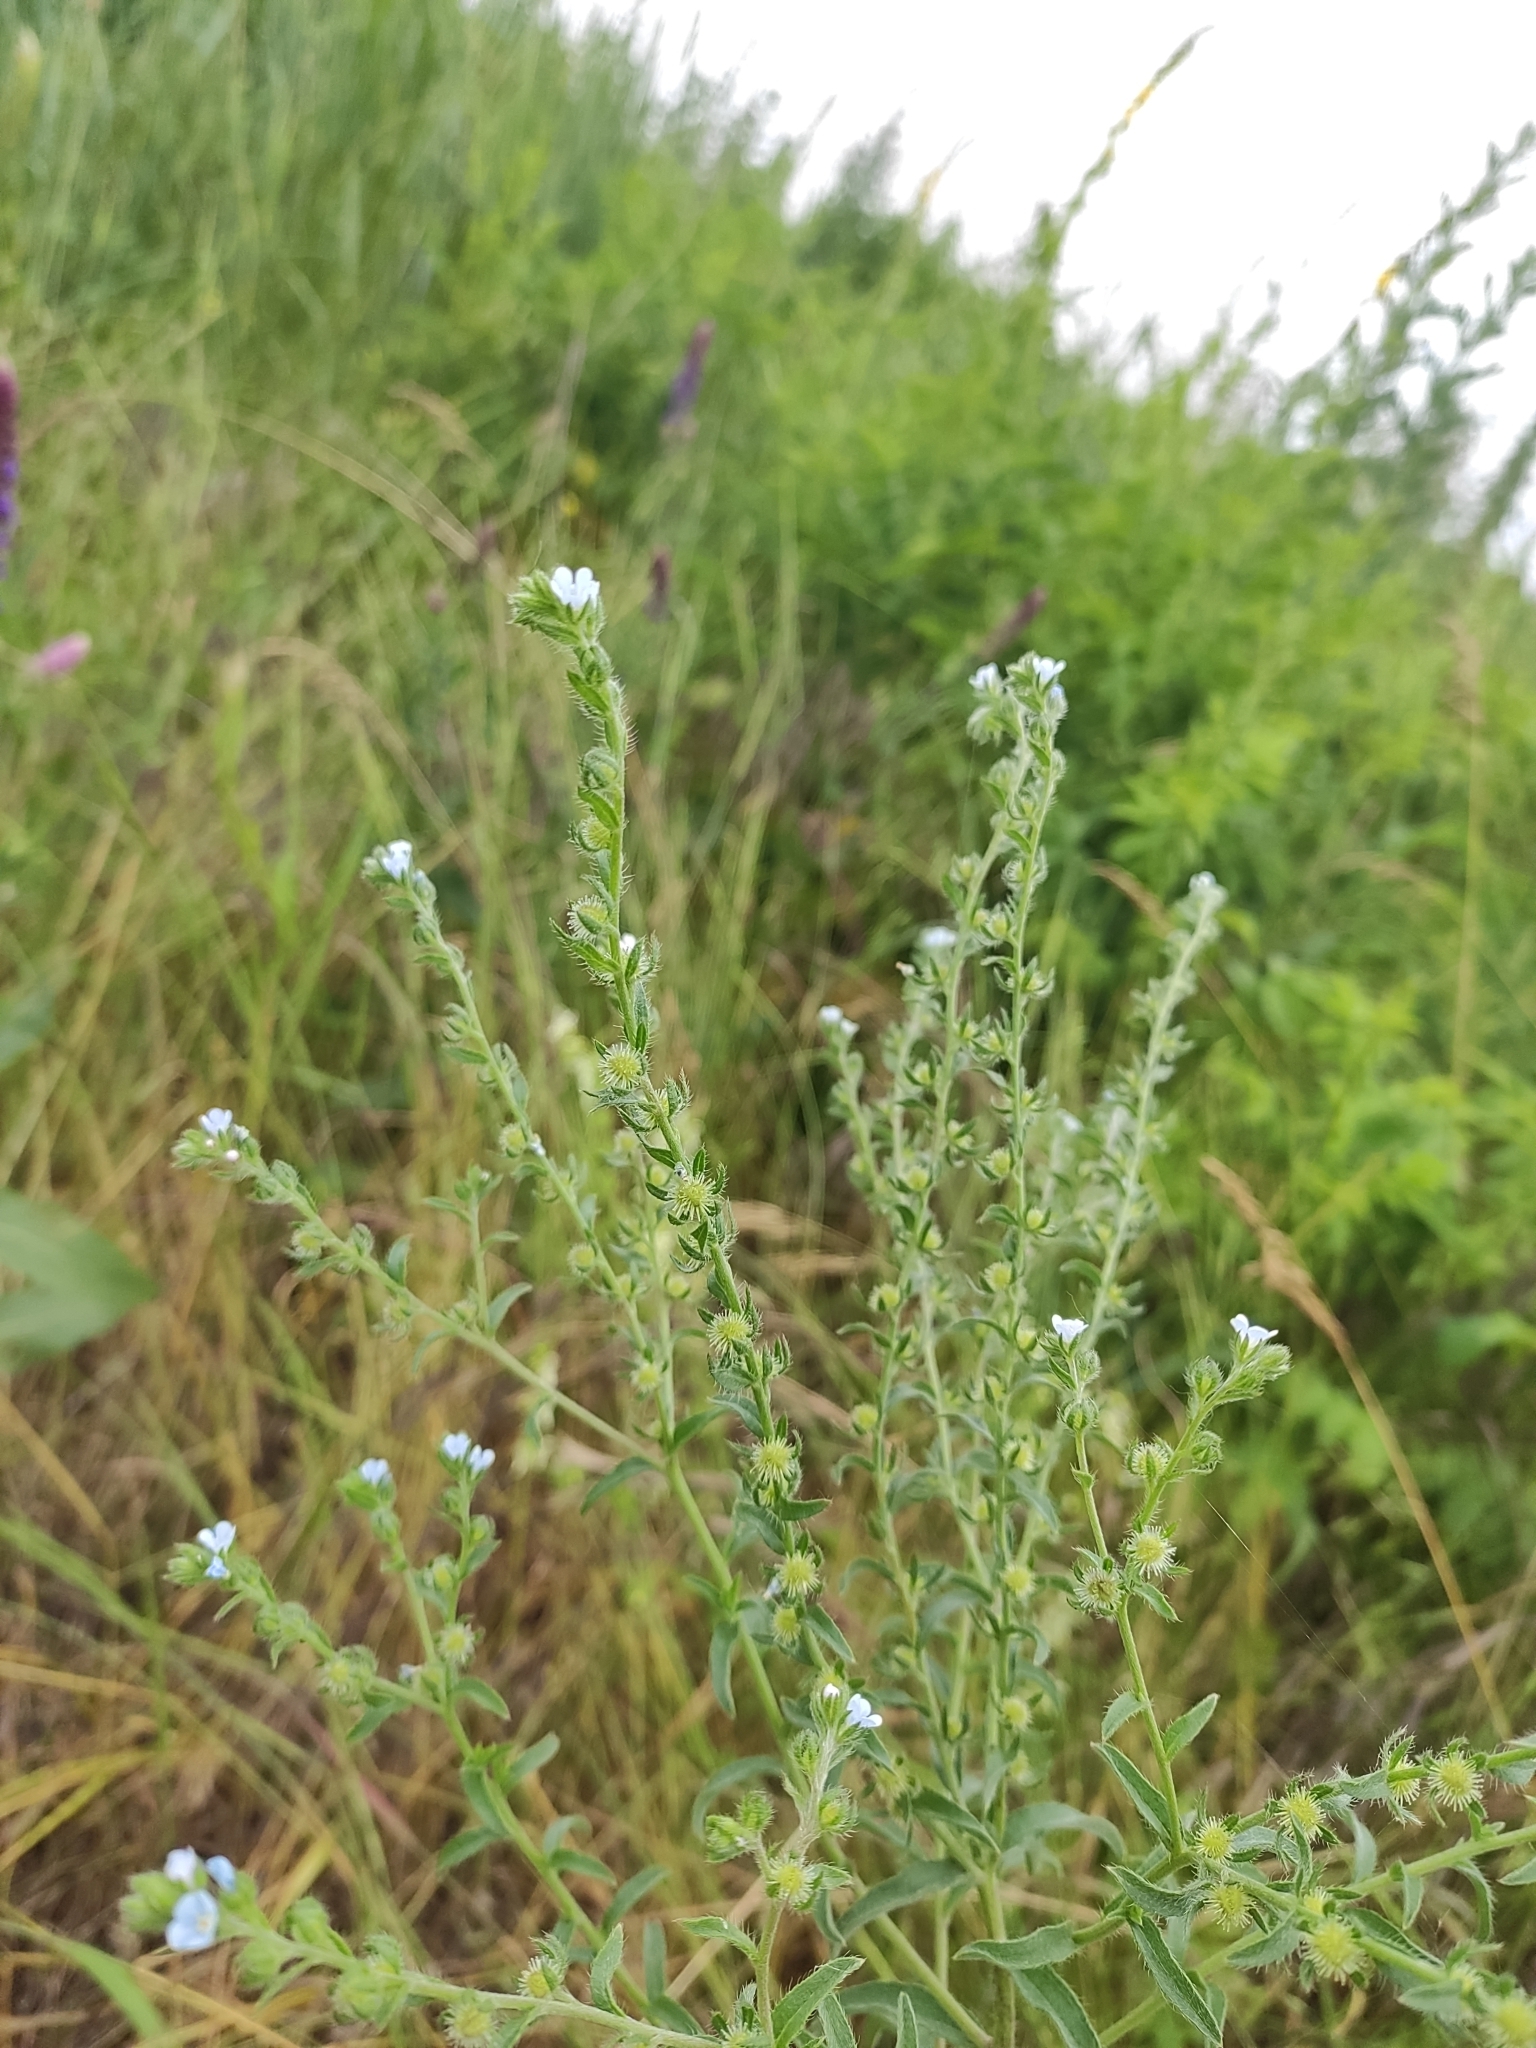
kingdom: Plantae
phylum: Tracheophyta
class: Magnoliopsida
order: Boraginales
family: Boraginaceae
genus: Lappula
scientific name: Lappula squarrosa
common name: European stickseed
